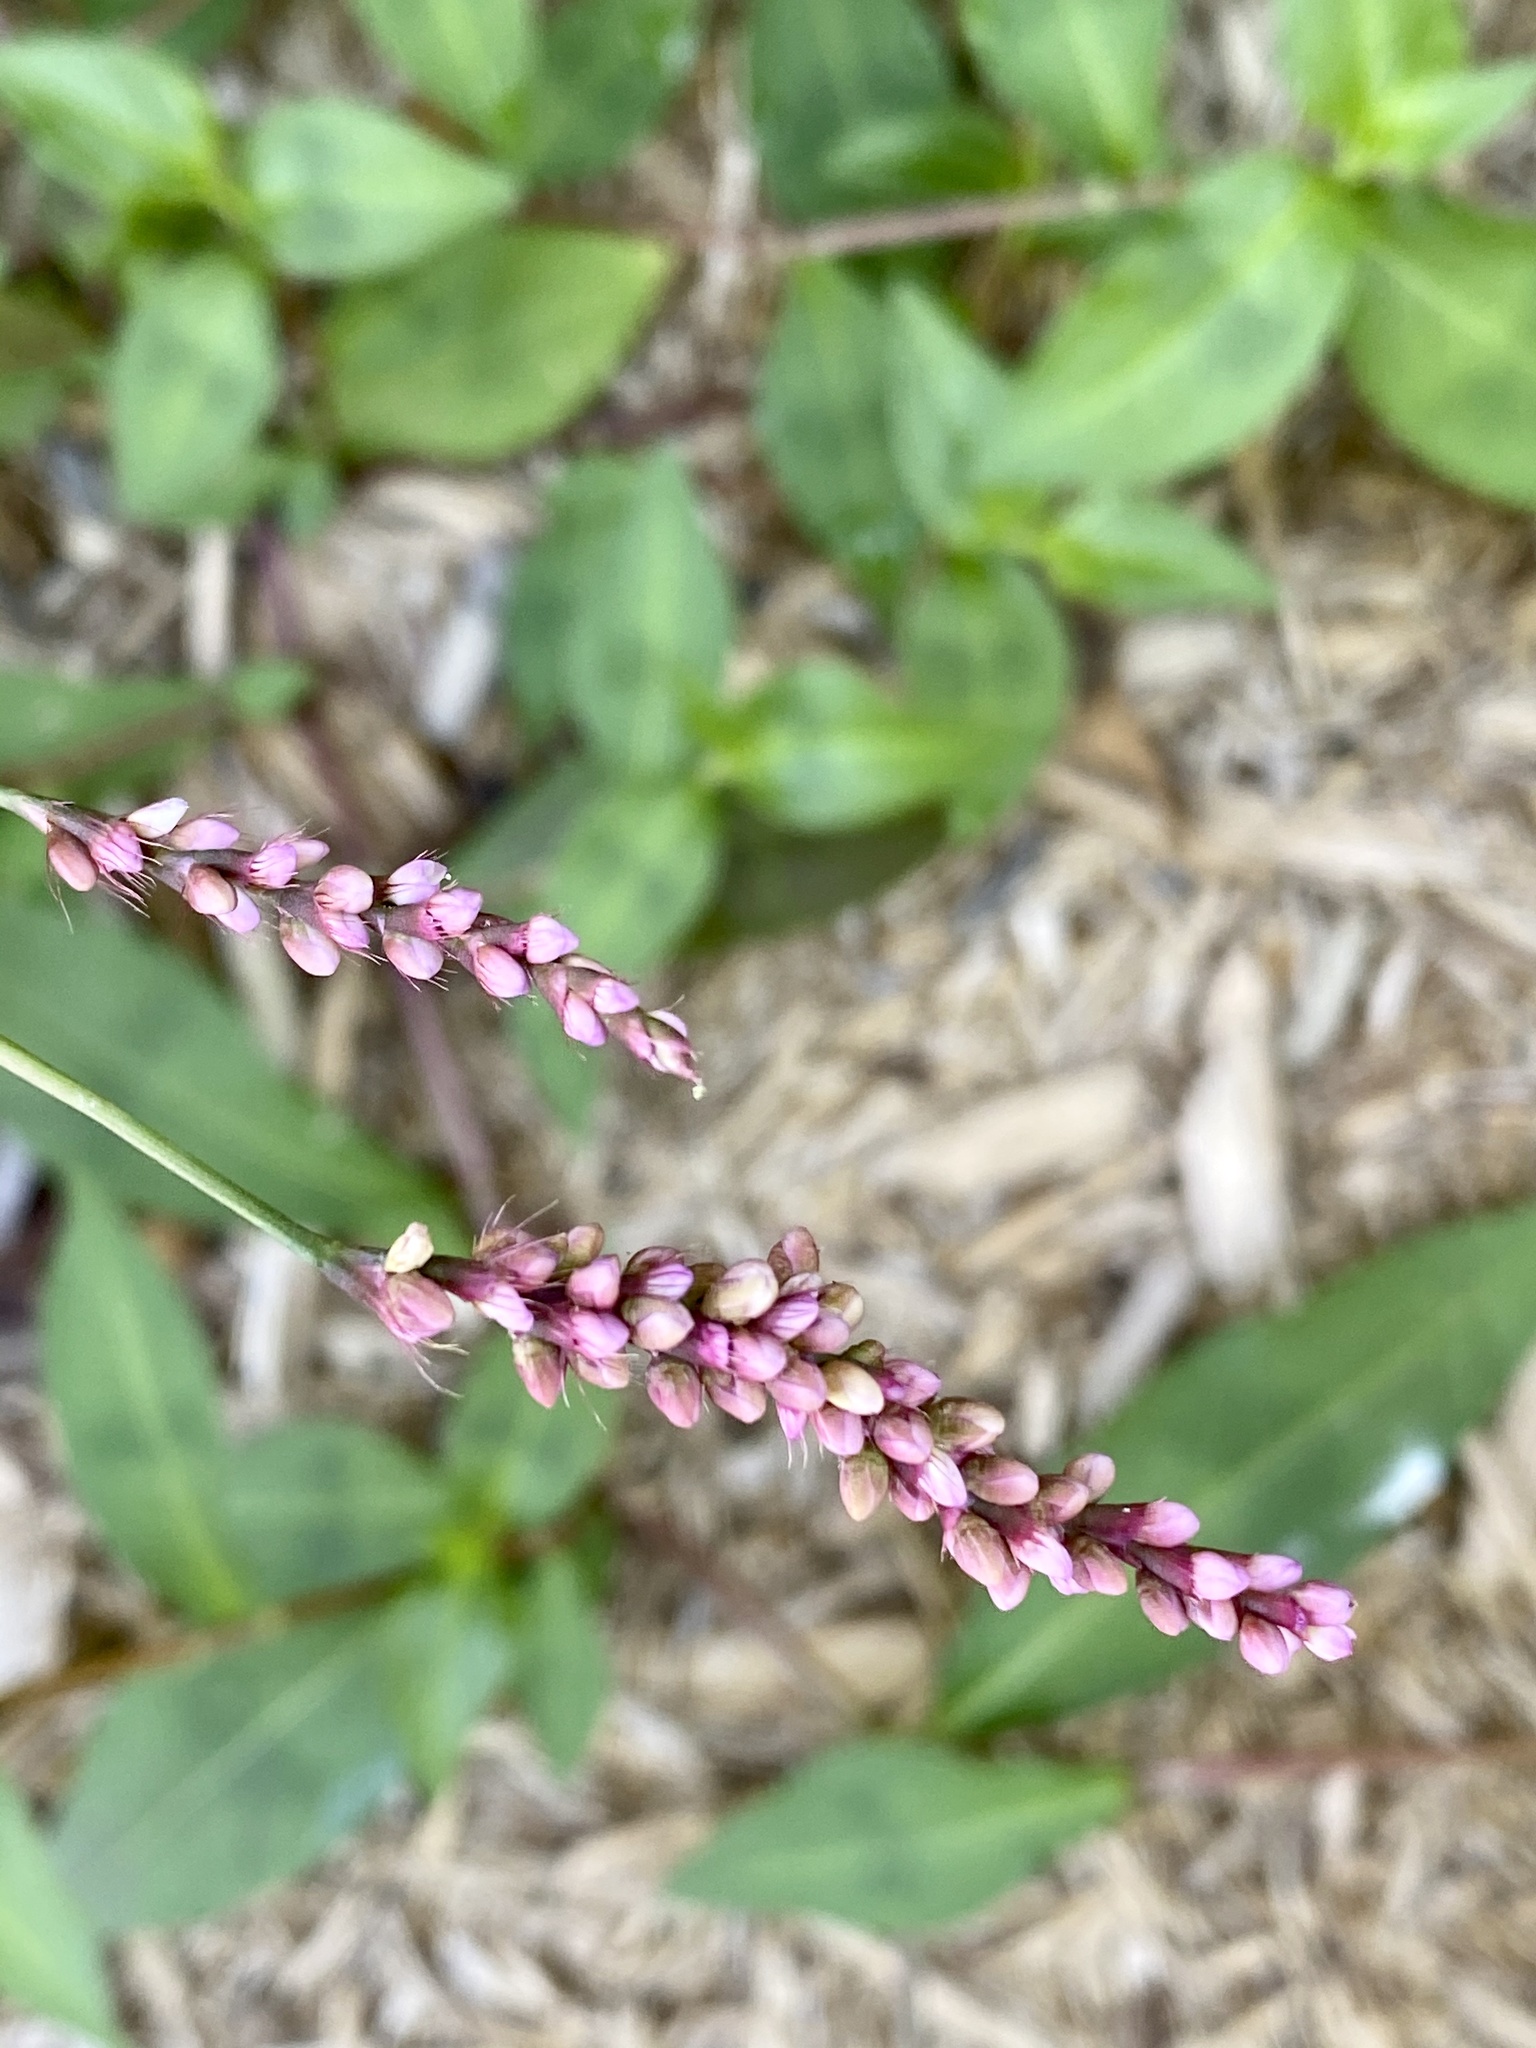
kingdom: Plantae
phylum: Tracheophyta
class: Magnoliopsida
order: Caryophyllales
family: Polygonaceae
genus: Persicaria
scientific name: Persicaria longiseta
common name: Bristly lady's-thumb
